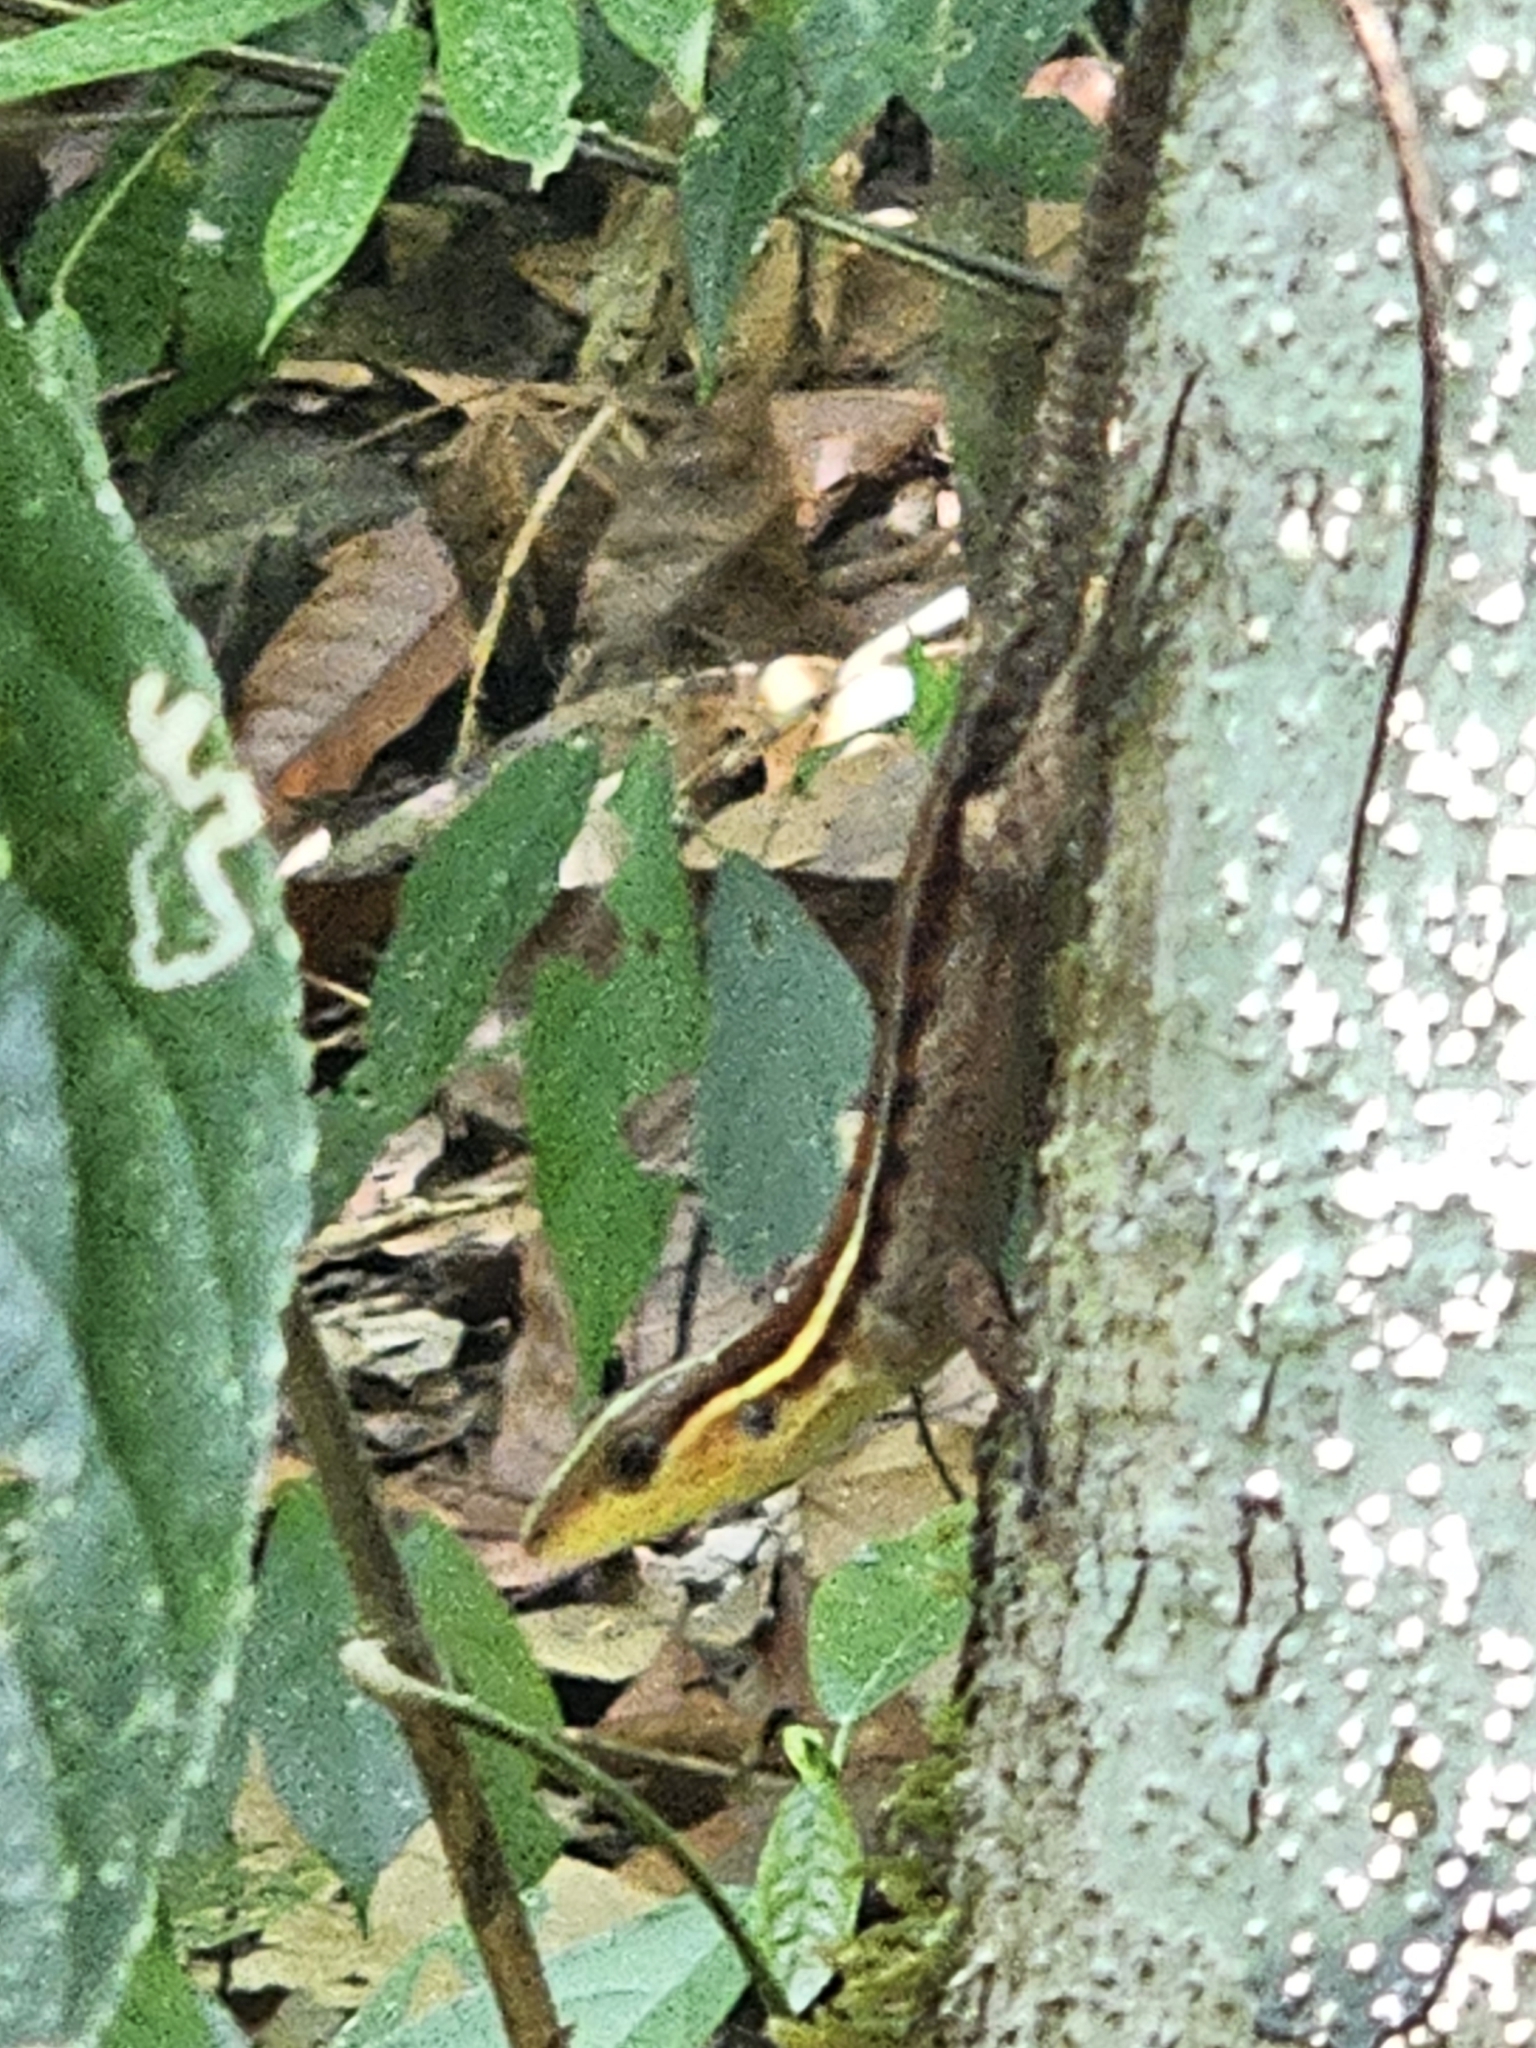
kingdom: Animalia
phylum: Chordata
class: Squamata
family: Teiidae
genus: Kentropyx
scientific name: Kentropyx calcarata
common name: Striped forest whiptail
